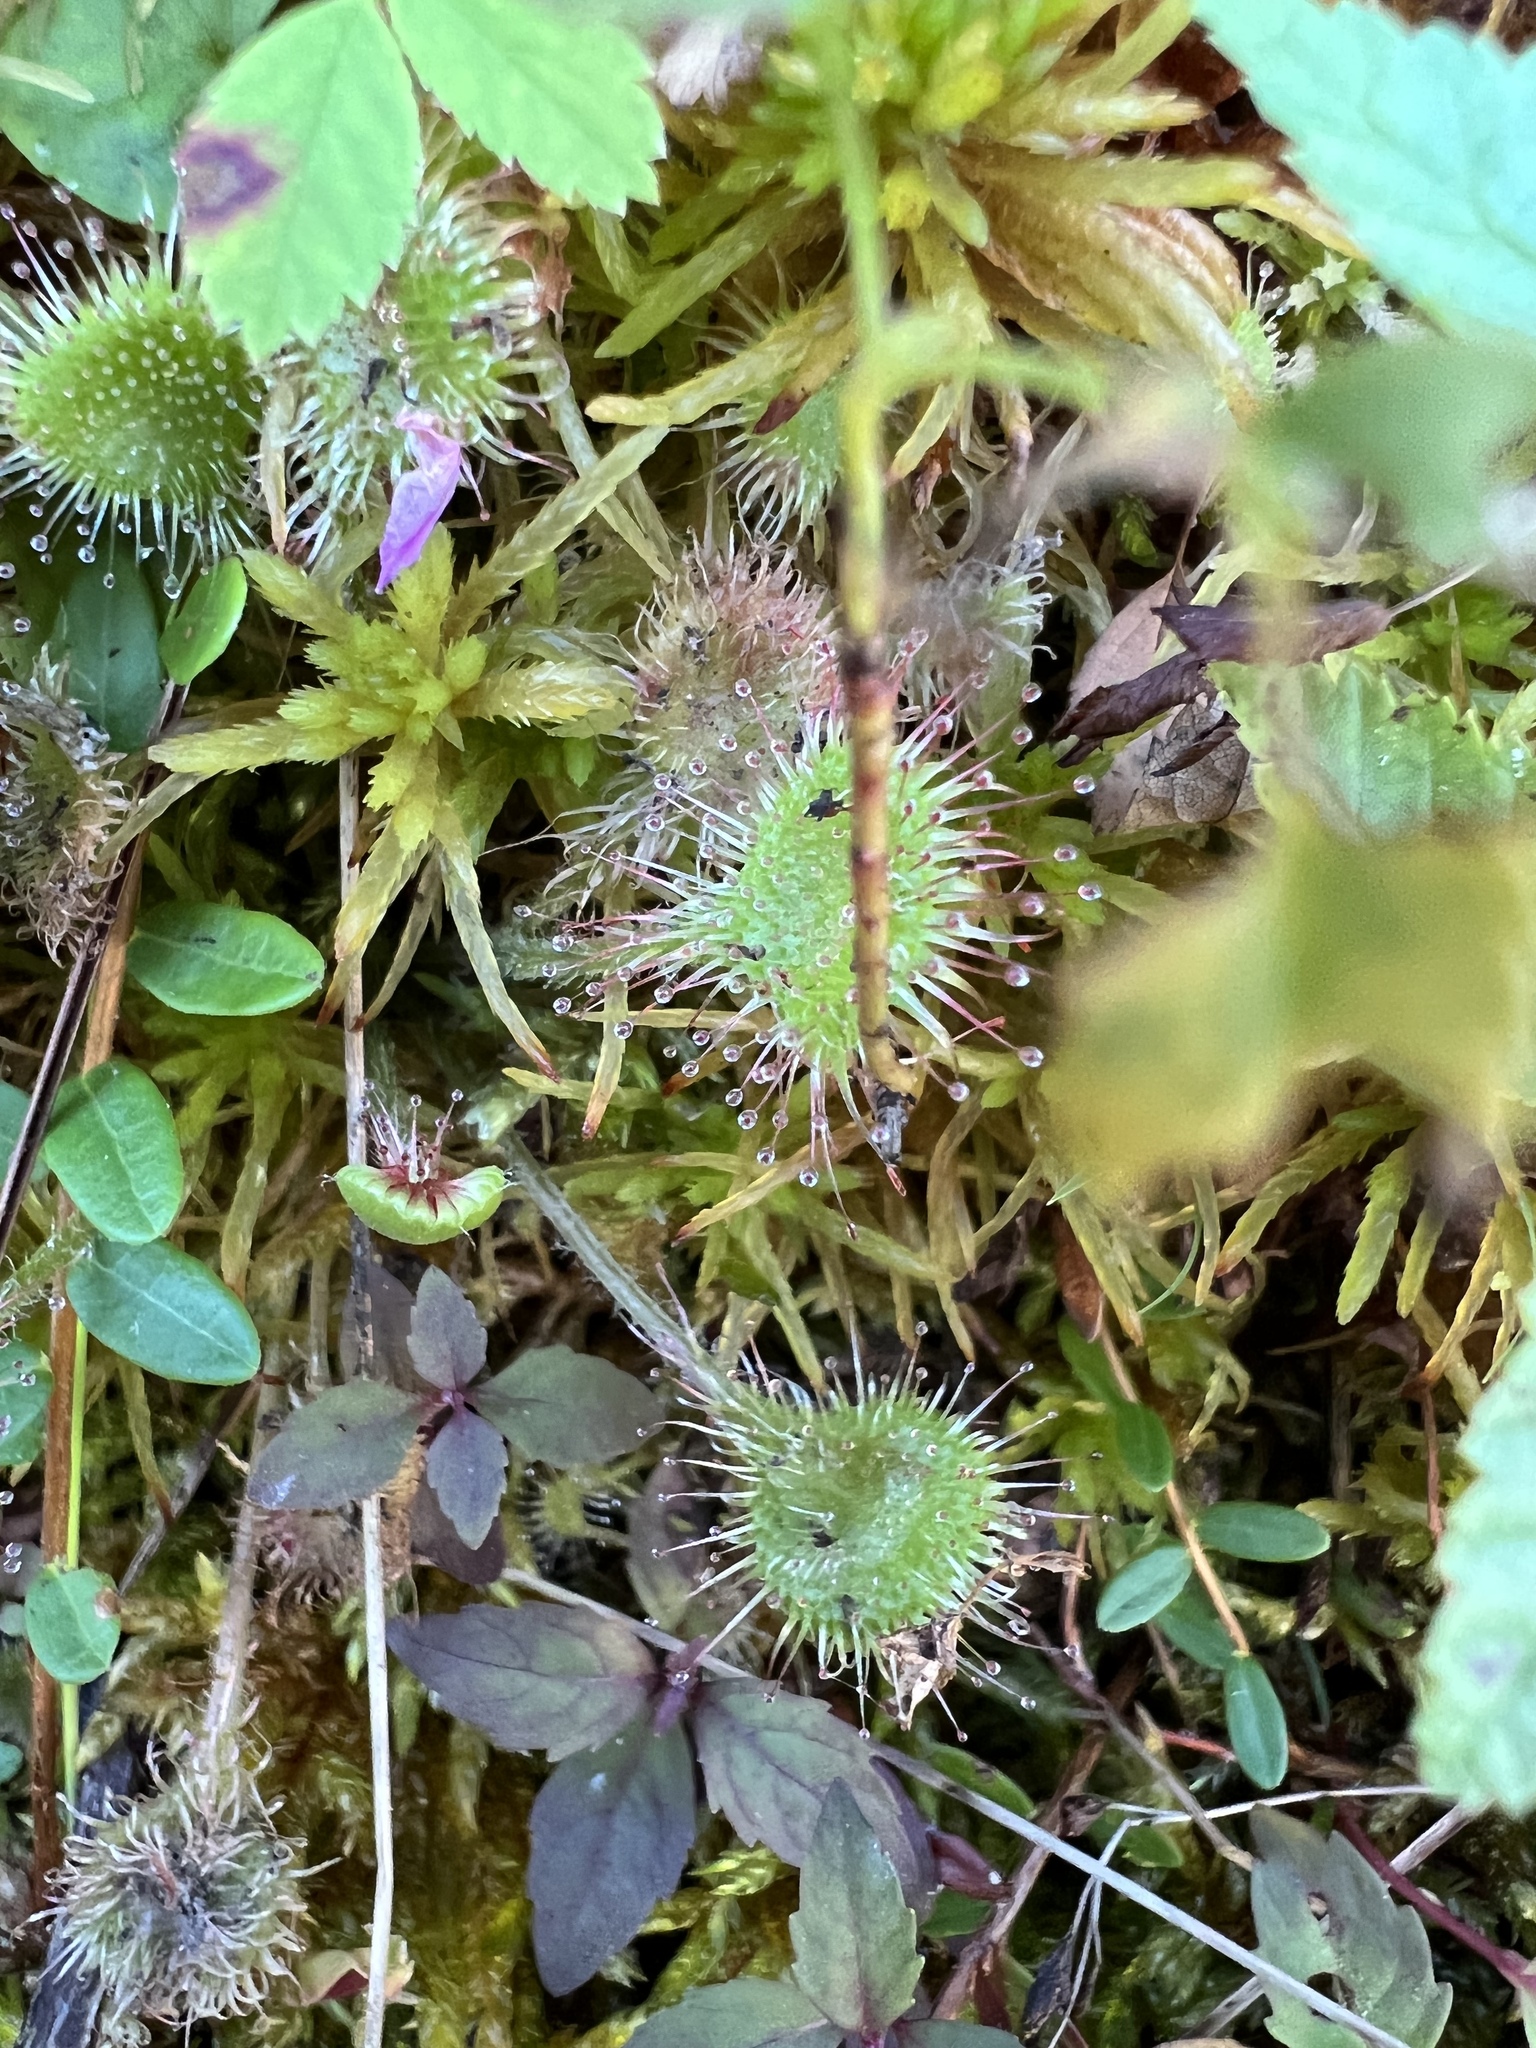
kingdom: Plantae
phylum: Tracheophyta
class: Magnoliopsida
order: Caryophyllales
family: Droseraceae
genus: Drosera
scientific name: Drosera rotundifolia
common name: Round-leaved sundew
